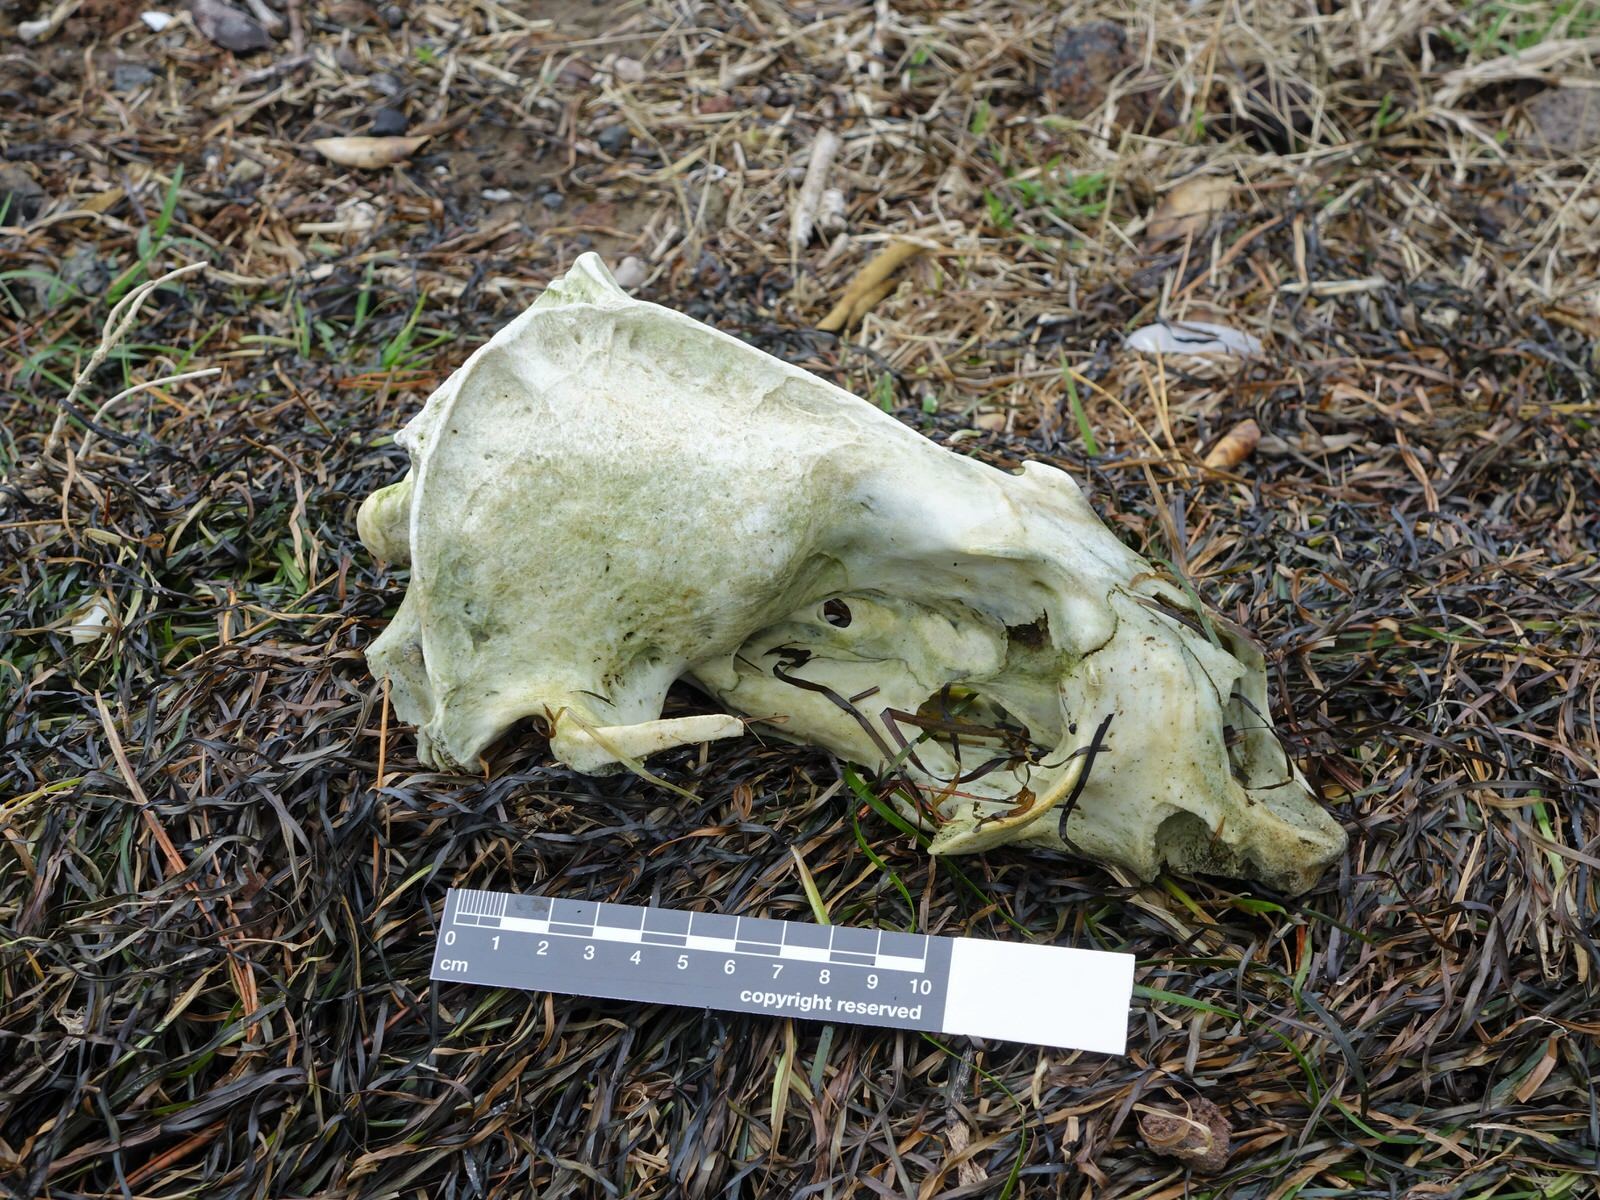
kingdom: Animalia
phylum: Chordata
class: Mammalia
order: Carnivora
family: Otariidae
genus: Arctocephalus
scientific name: Arctocephalus forsteri
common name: New zealand fur seal
